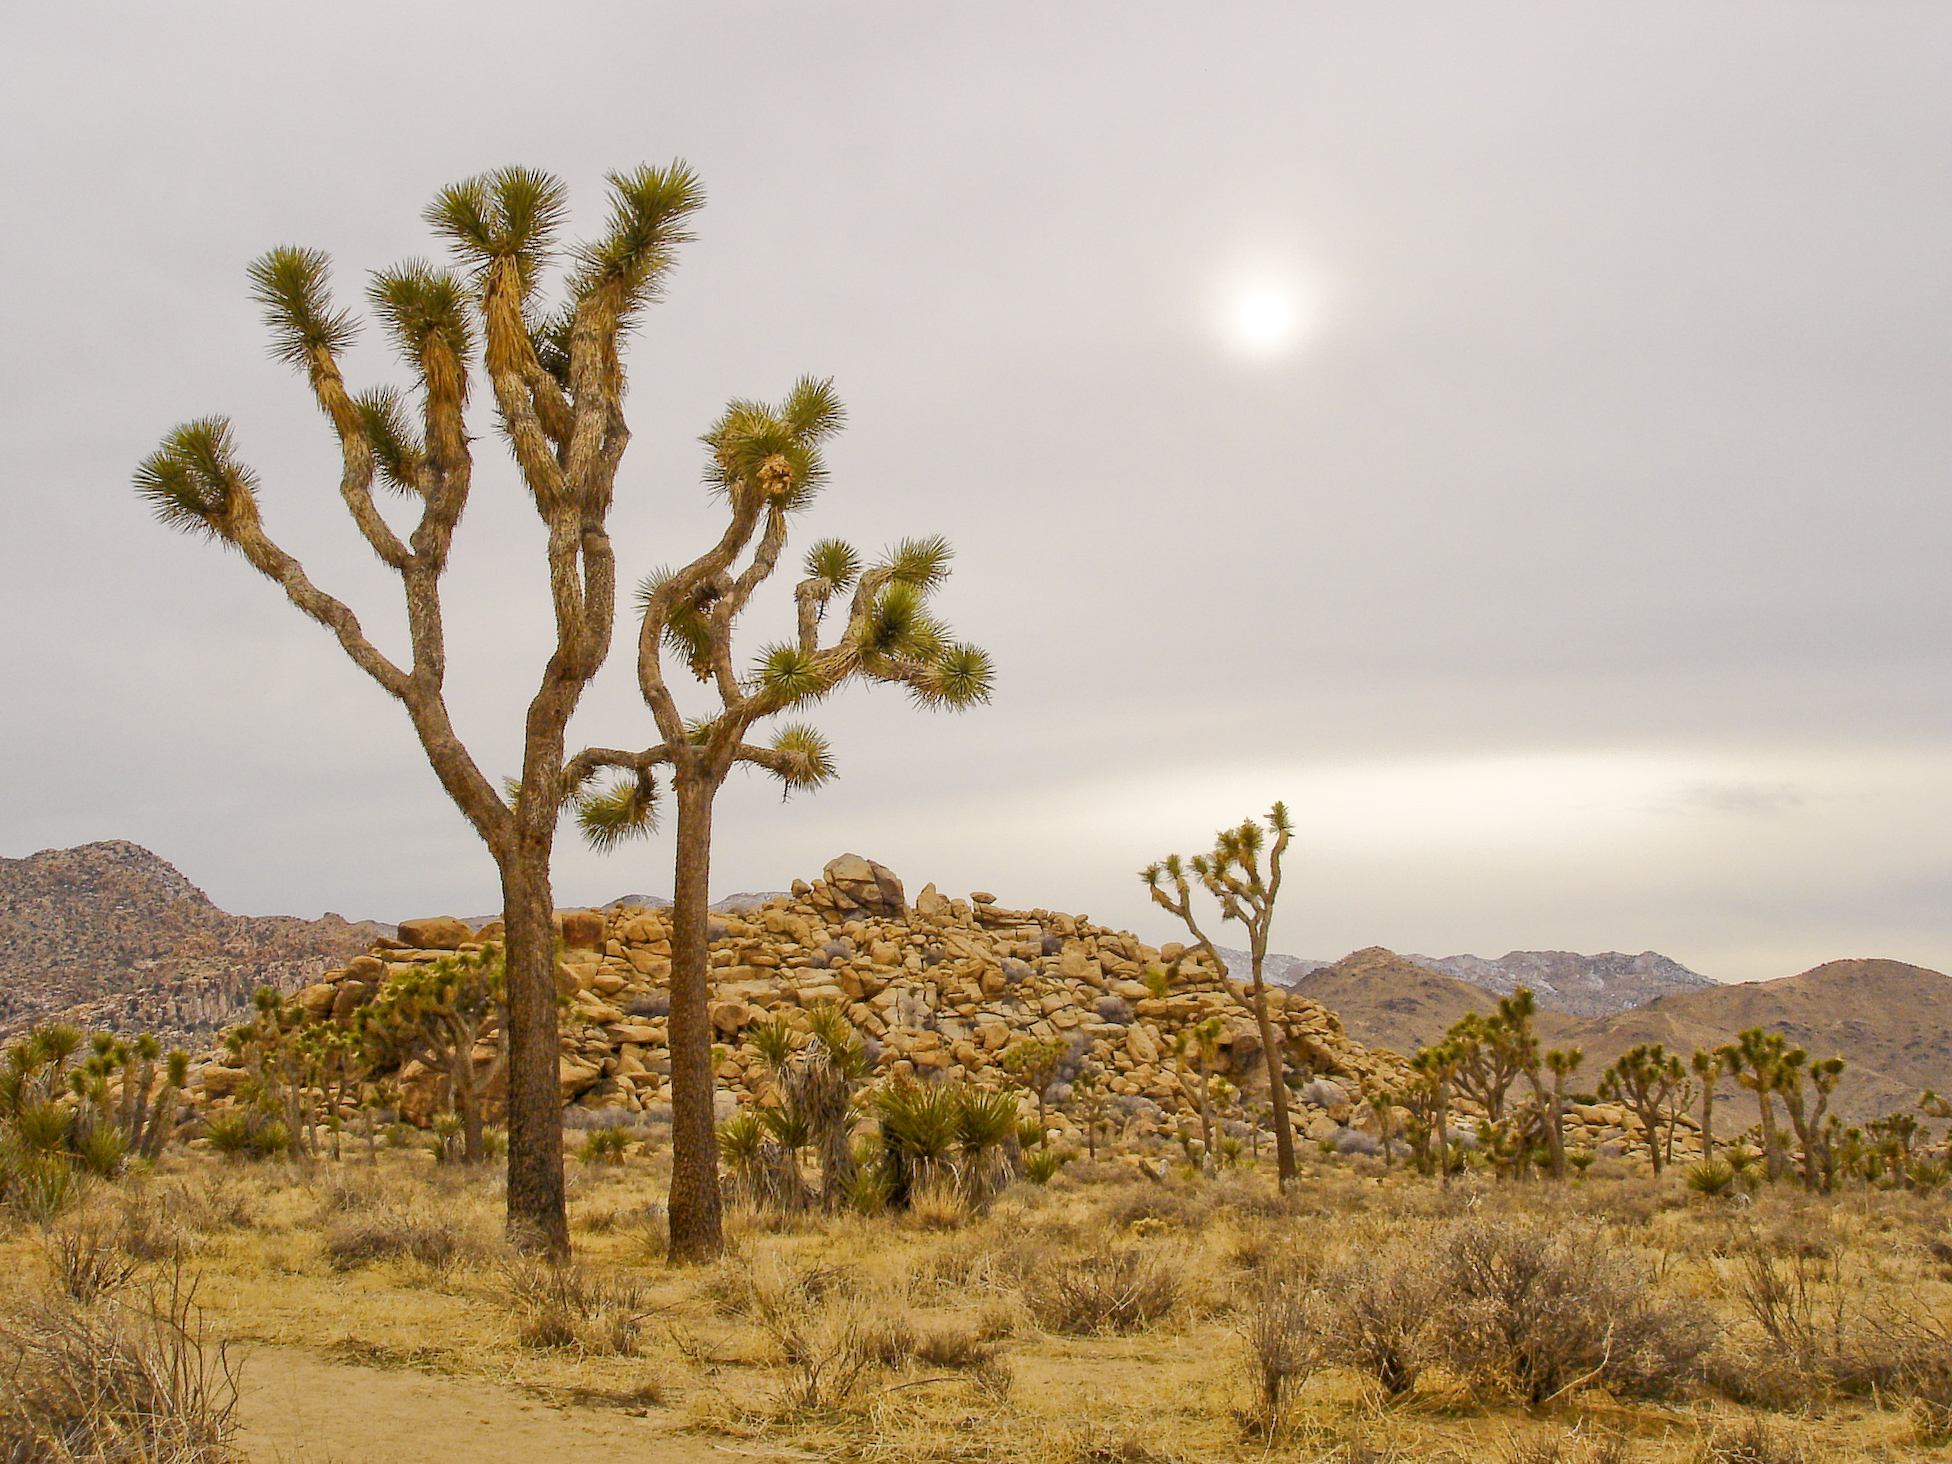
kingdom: Plantae
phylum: Tracheophyta
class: Liliopsida
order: Asparagales
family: Asparagaceae
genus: Yucca
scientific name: Yucca brevifolia
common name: Joshua tree
